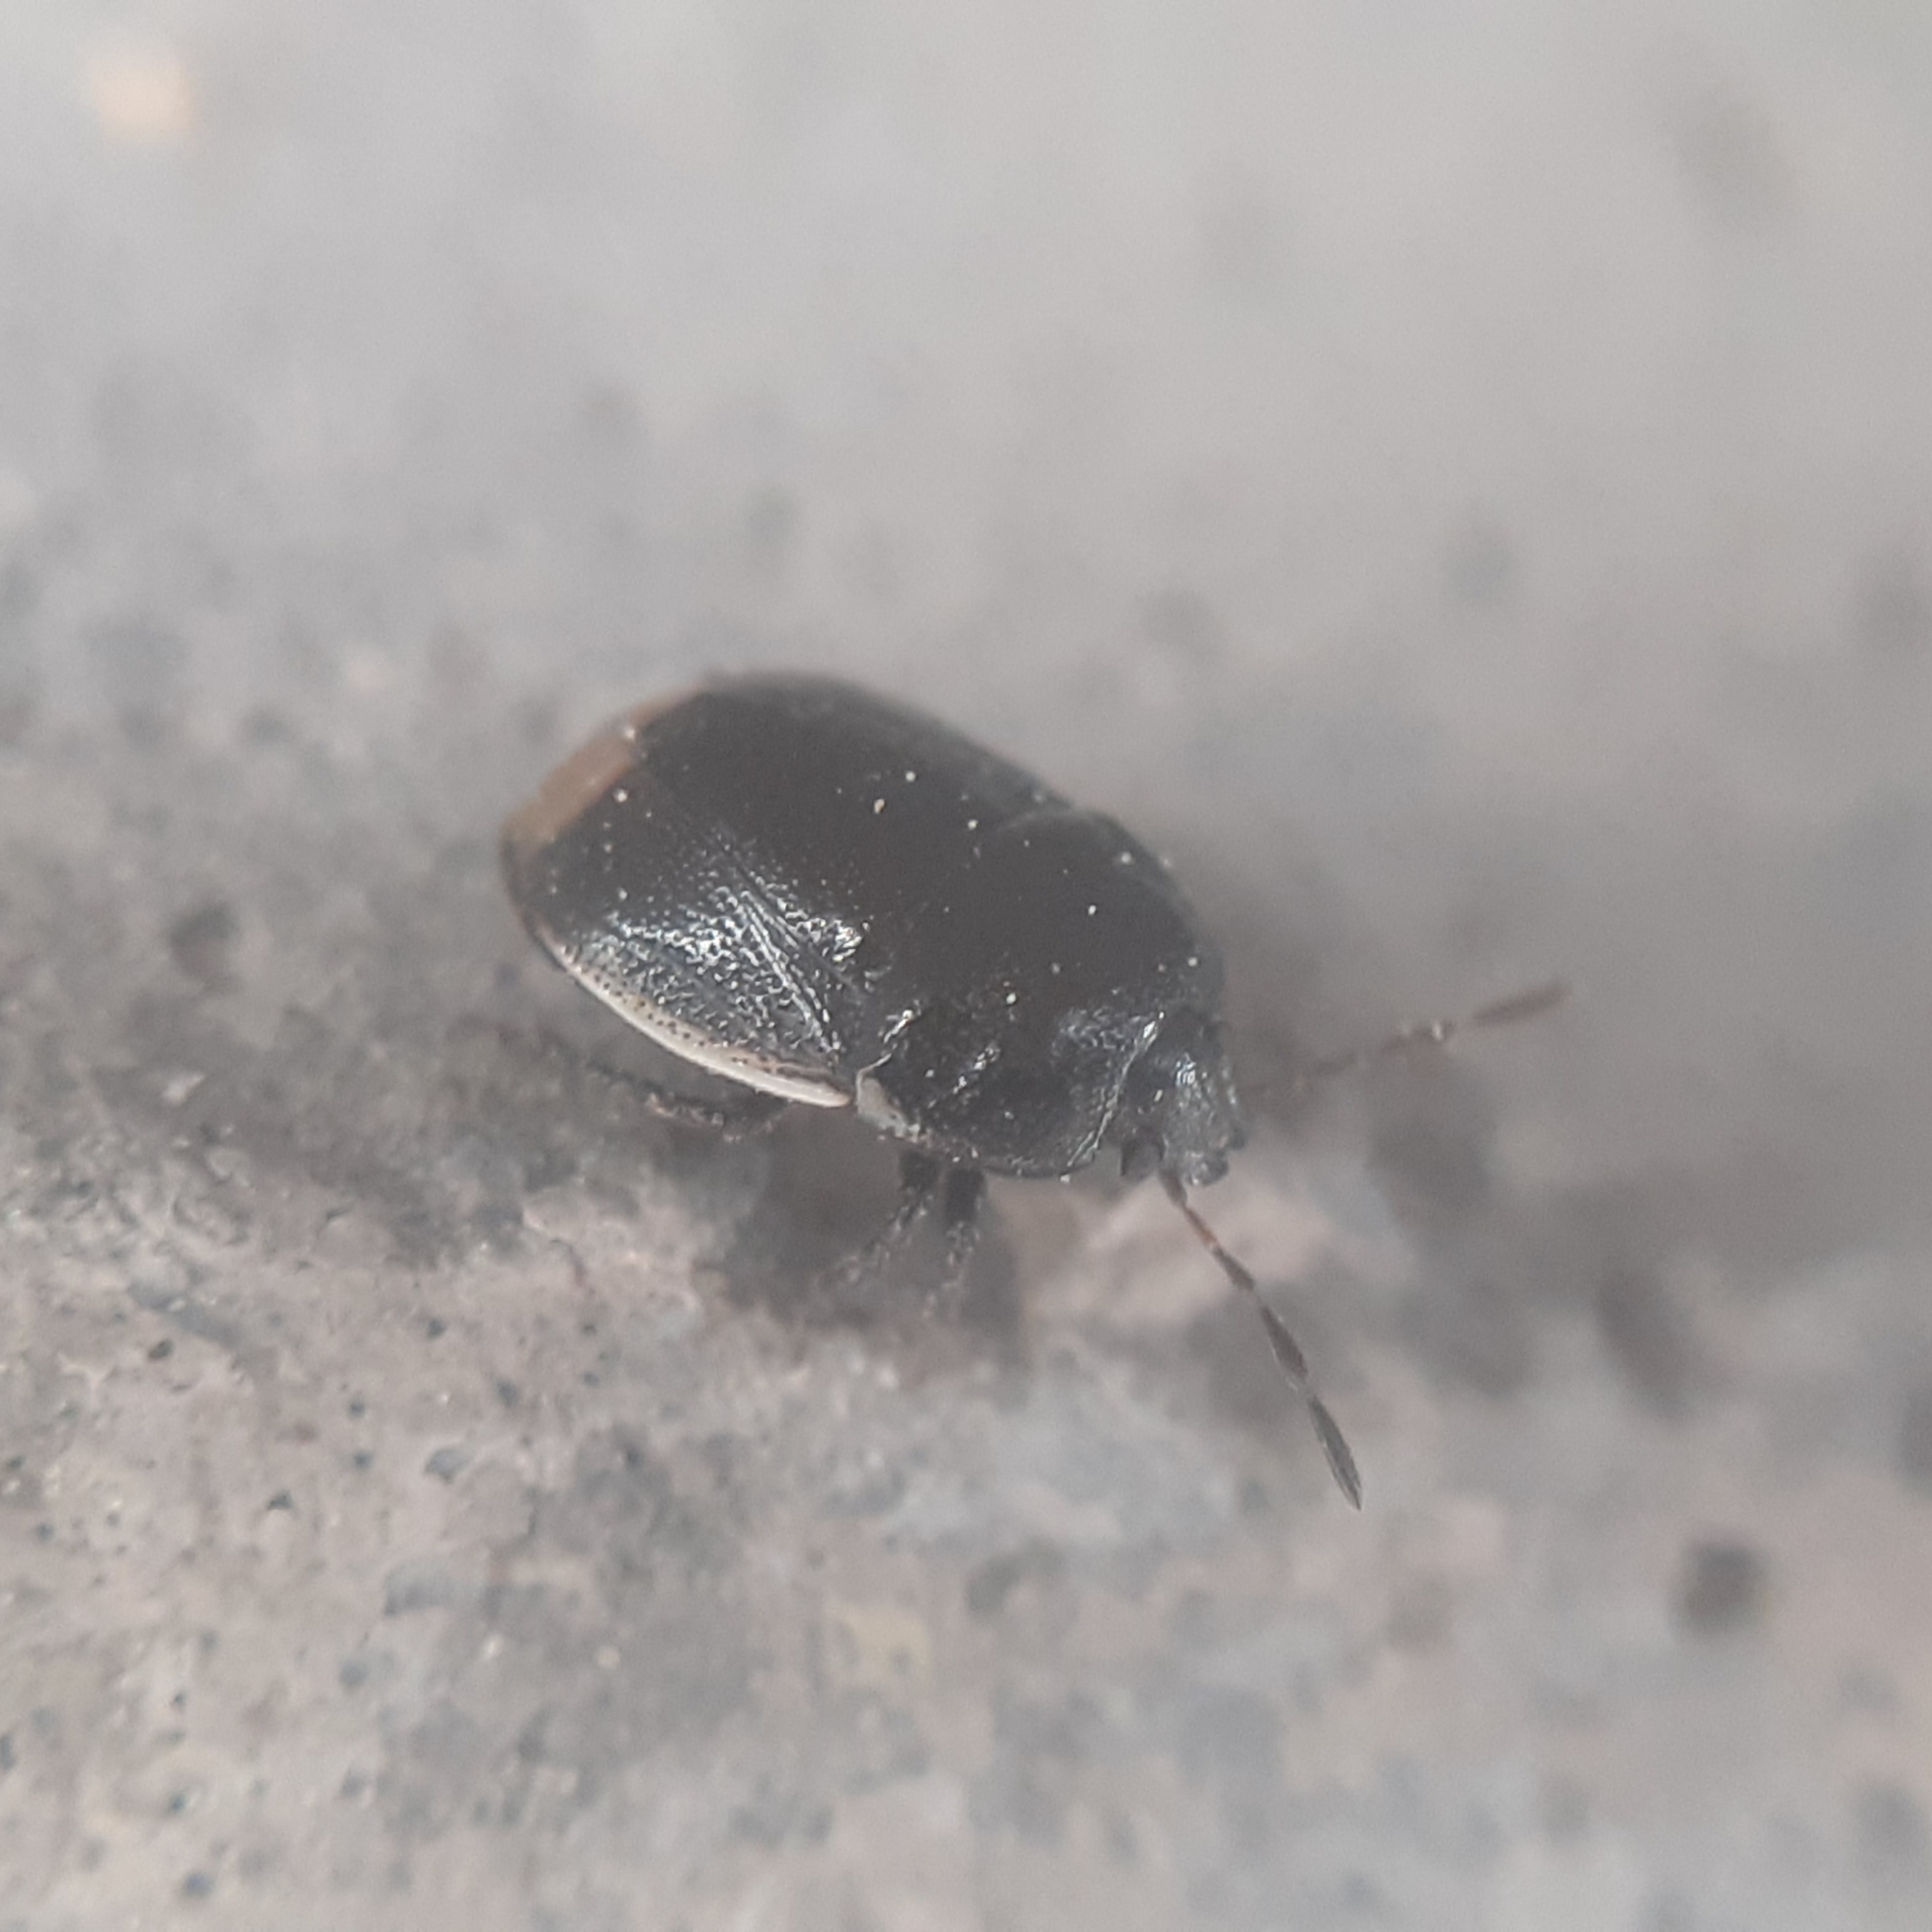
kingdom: Animalia
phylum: Arthropoda
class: Insecta
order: Hemiptera
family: Cydnidae
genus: Legnotus
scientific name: Legnotus limbosus
